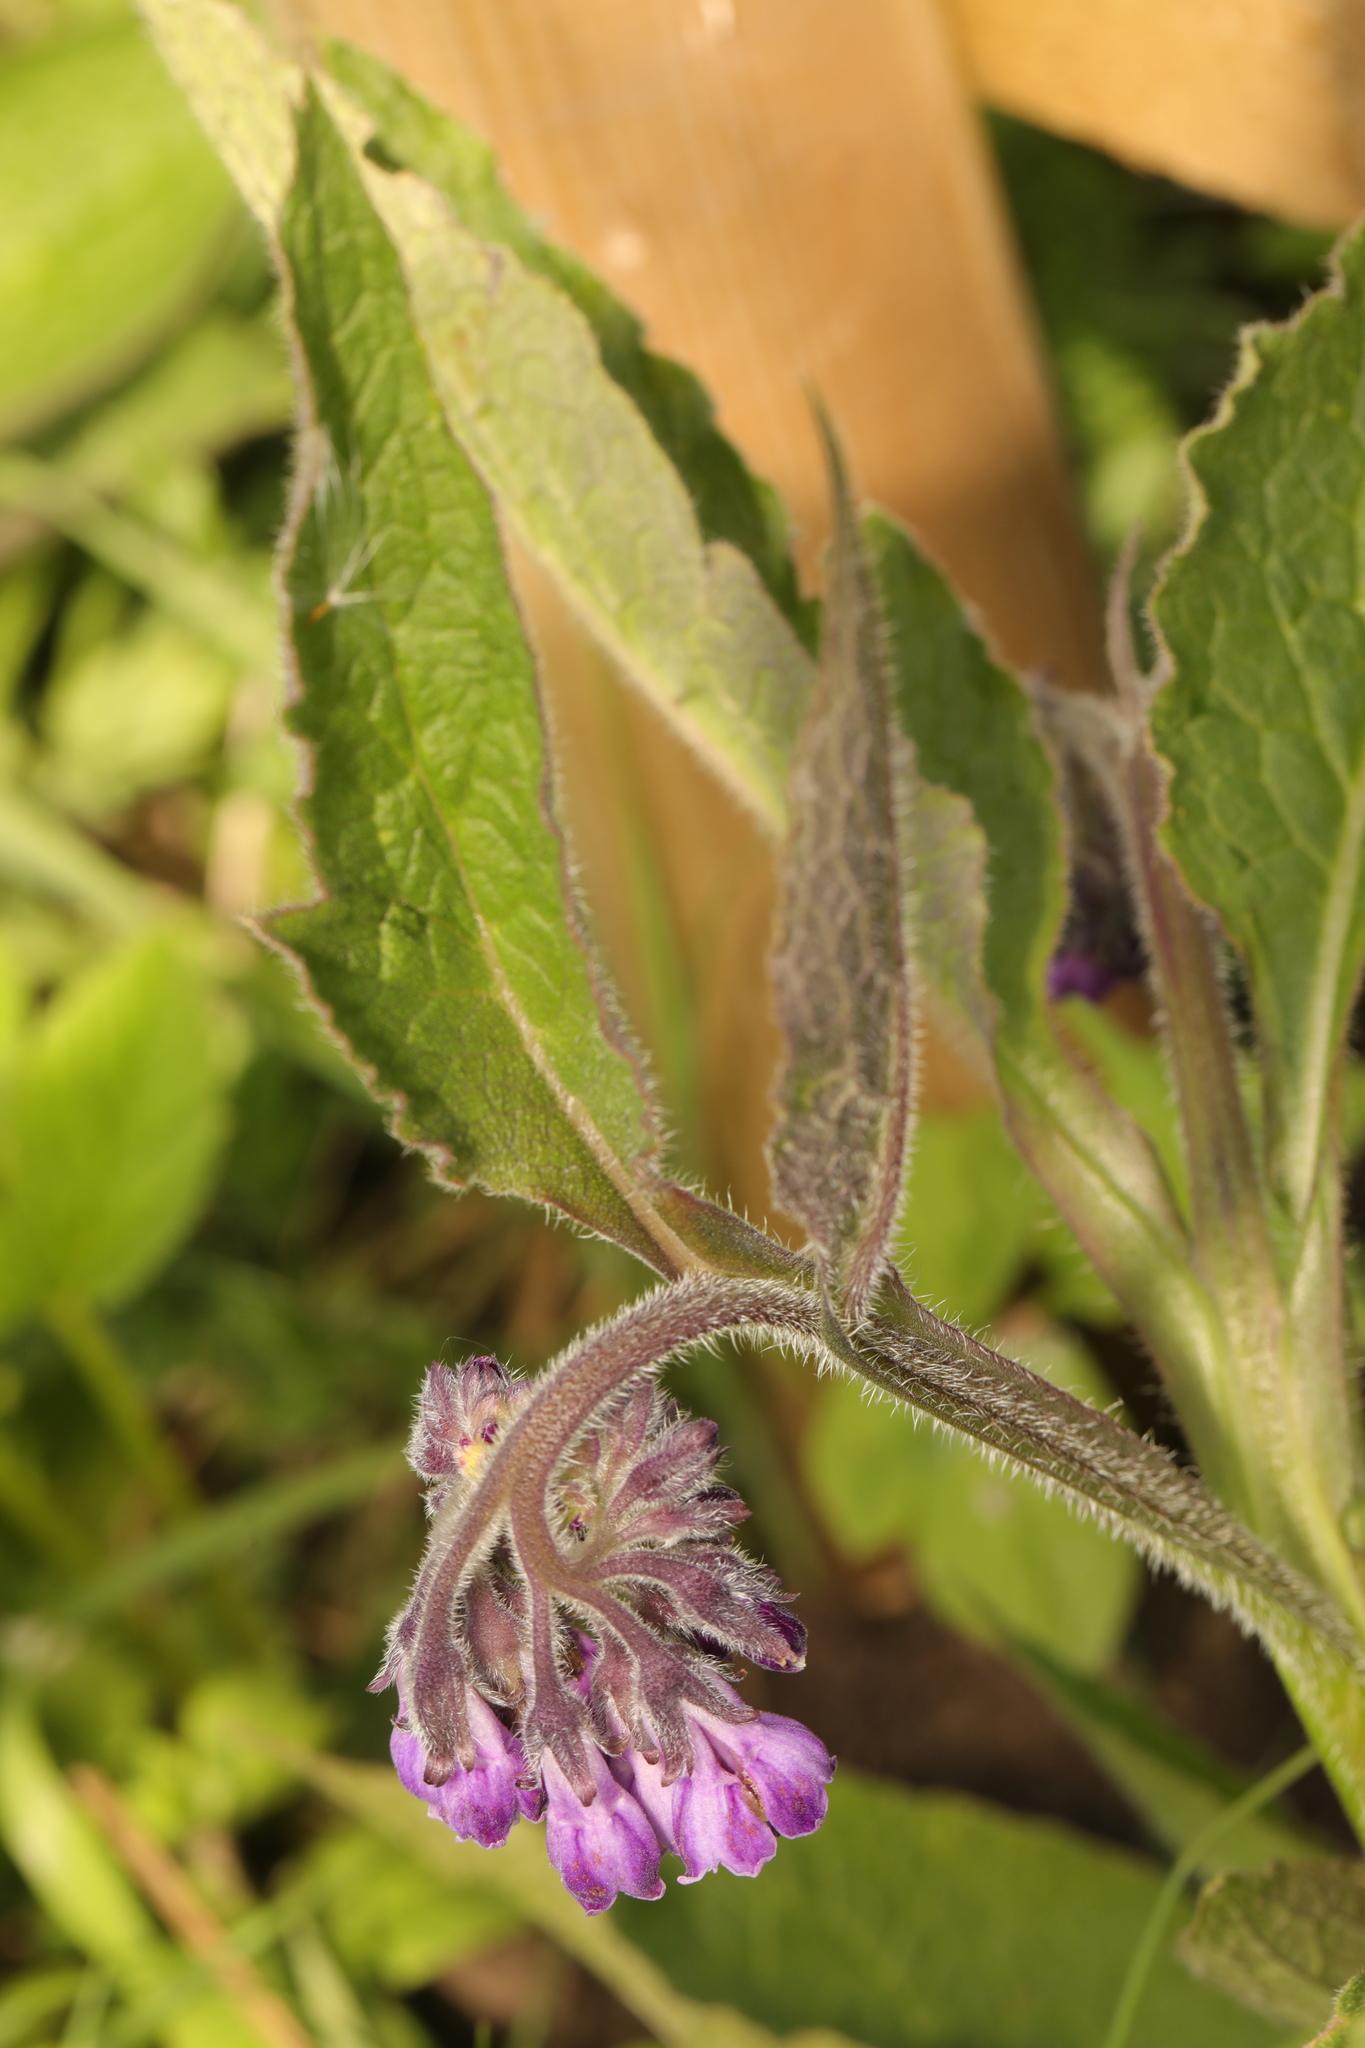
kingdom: Plantae
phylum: Tracheophyta
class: Magnoliopsida
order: Boraginales
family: Boraginaceae
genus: Symphytum
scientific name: Symphytum officinale
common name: Common comfrey
